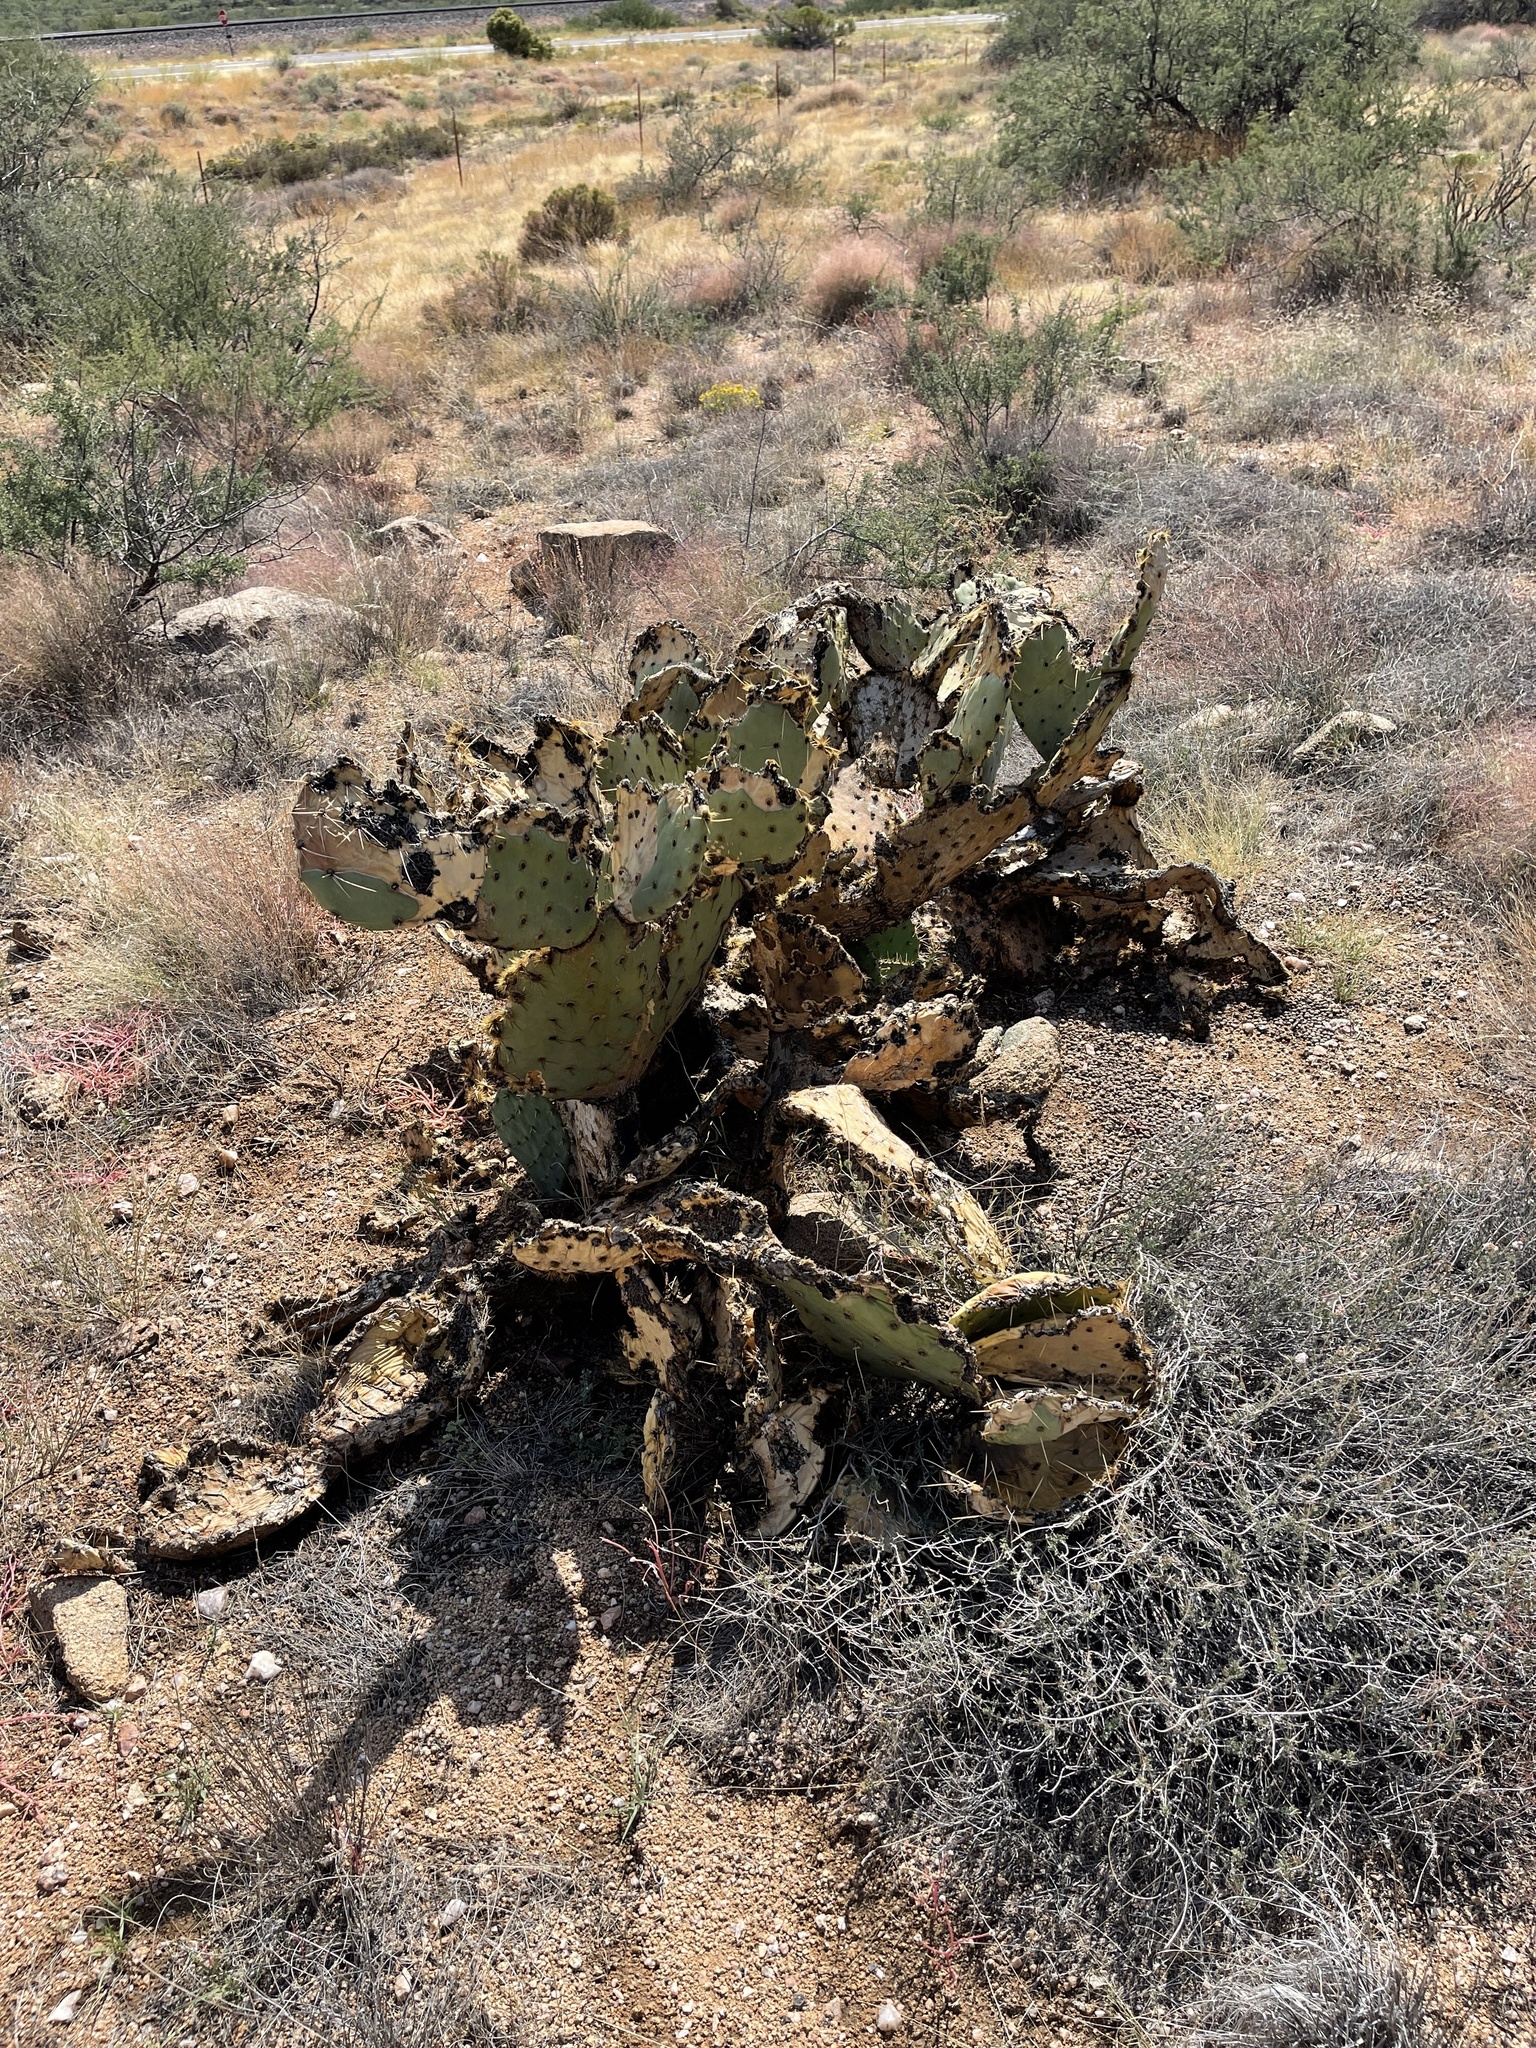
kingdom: Plantae
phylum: Tracheophyta
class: Magnoliopsida
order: Caryophyllales
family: Cactaceae
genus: Opuntia
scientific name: Opuntia phaeacantha
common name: New mexico prickly-pear
